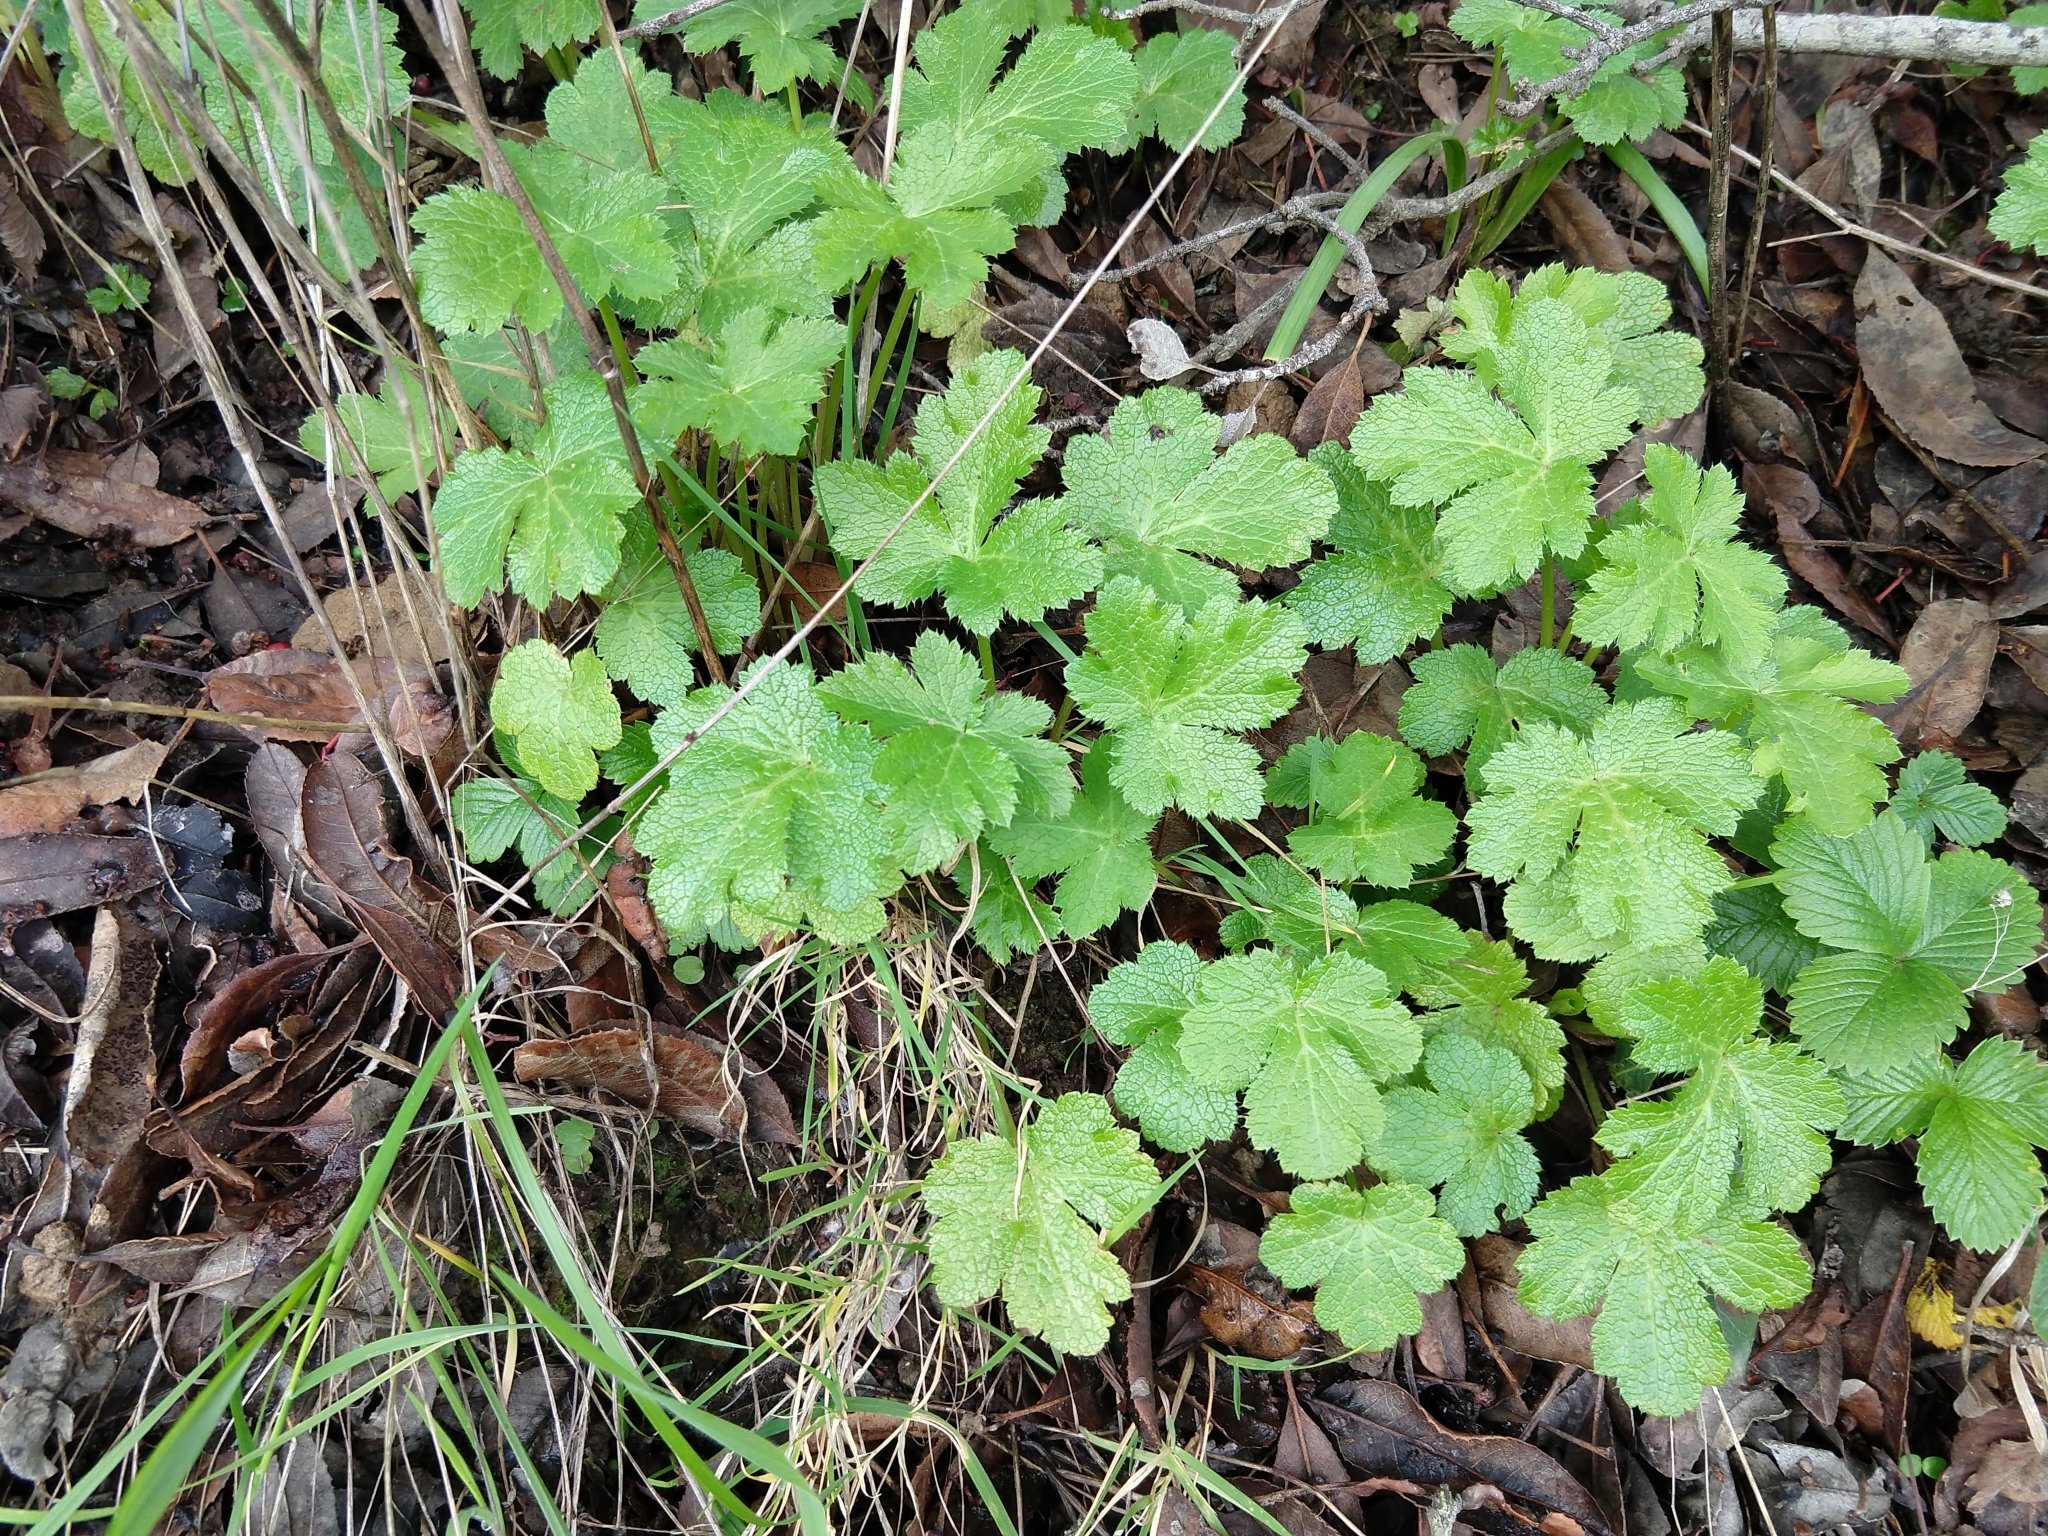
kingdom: Plantae
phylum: Tracheophyta
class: Magnoliopsida
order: Apiales
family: Apiaceae
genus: Sanicula
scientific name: Sanicula crassicaulis
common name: Western snakeroot
